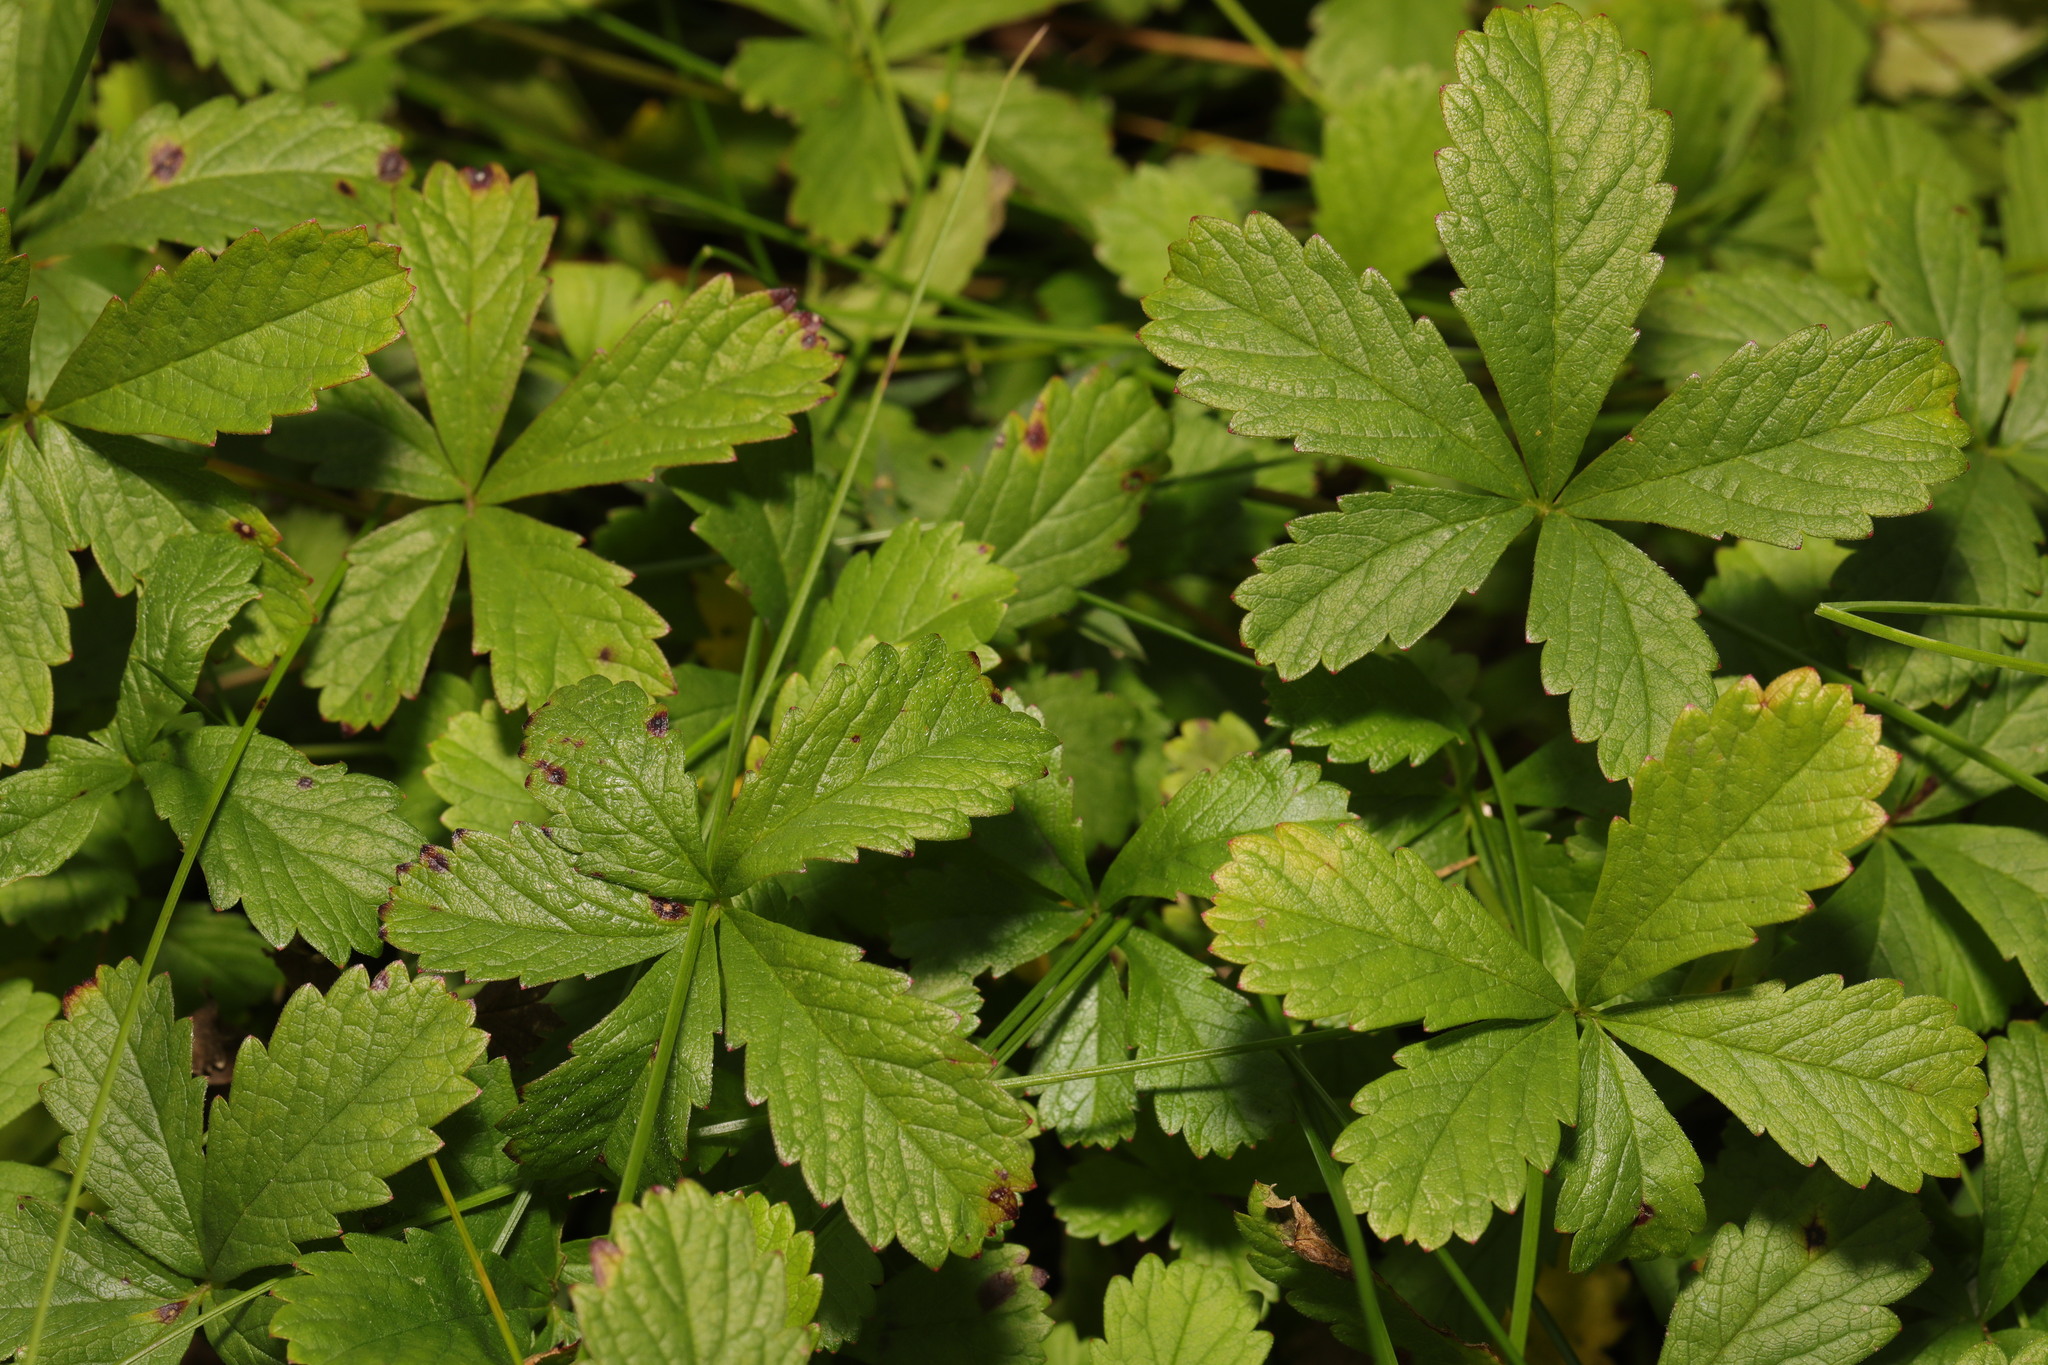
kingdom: Plantae
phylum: Tracheophyta
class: Magnoliopsida
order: Rosales
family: Rosaceae
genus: Potentilla
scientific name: Potentilla reptans
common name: Creeping cinquefoil
